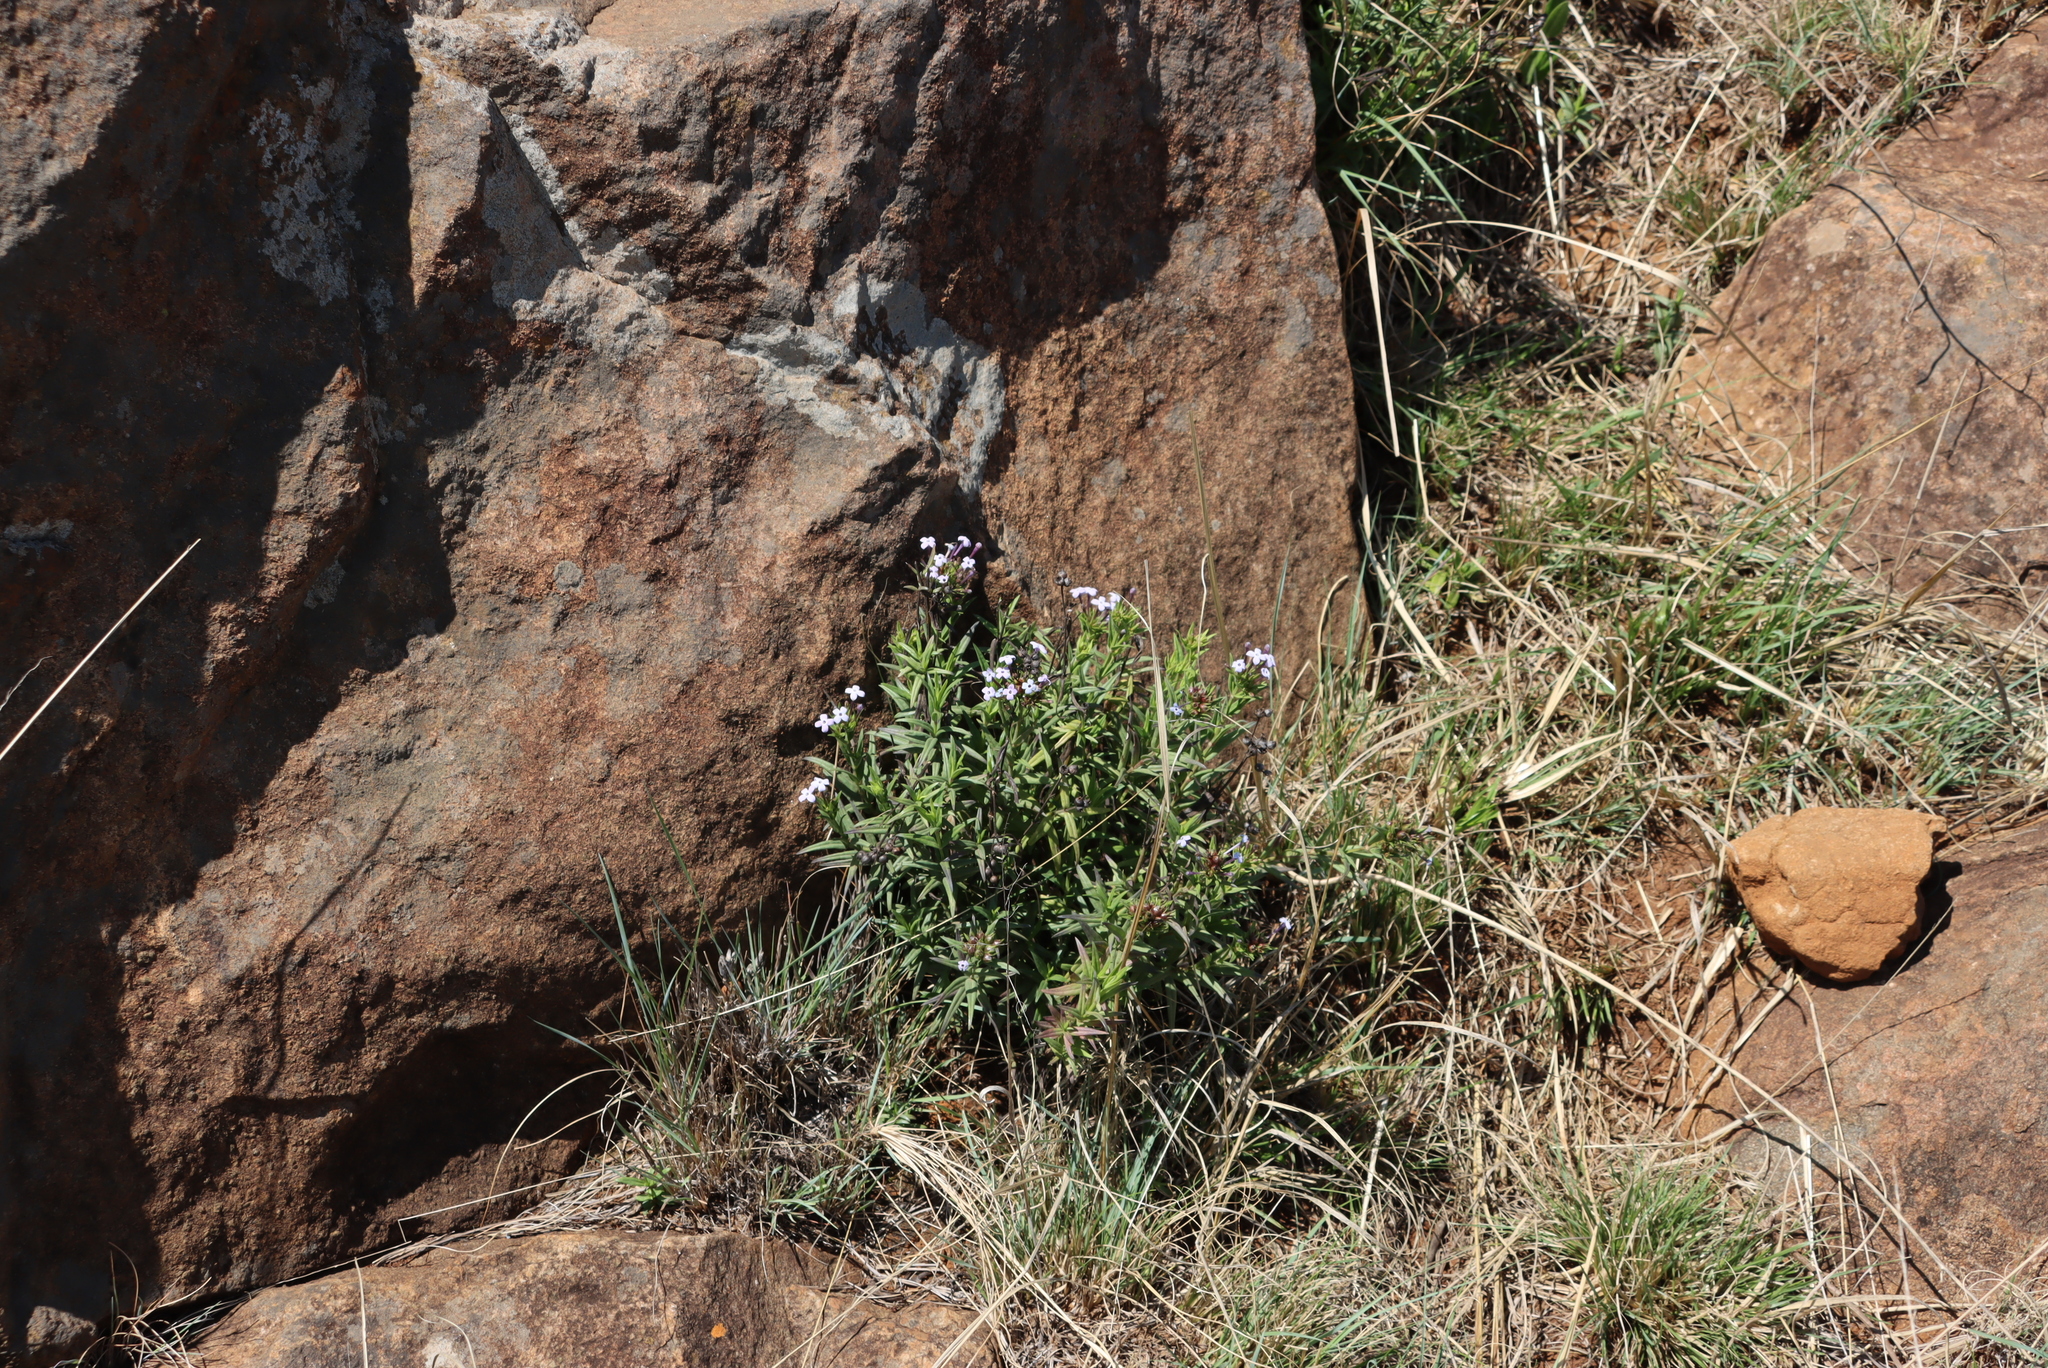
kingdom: Plantae
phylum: Tracheophyta
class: Magnoliopsida
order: Gentianales
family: Rubiaceae
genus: Conostomium
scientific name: Conostomium natalense
